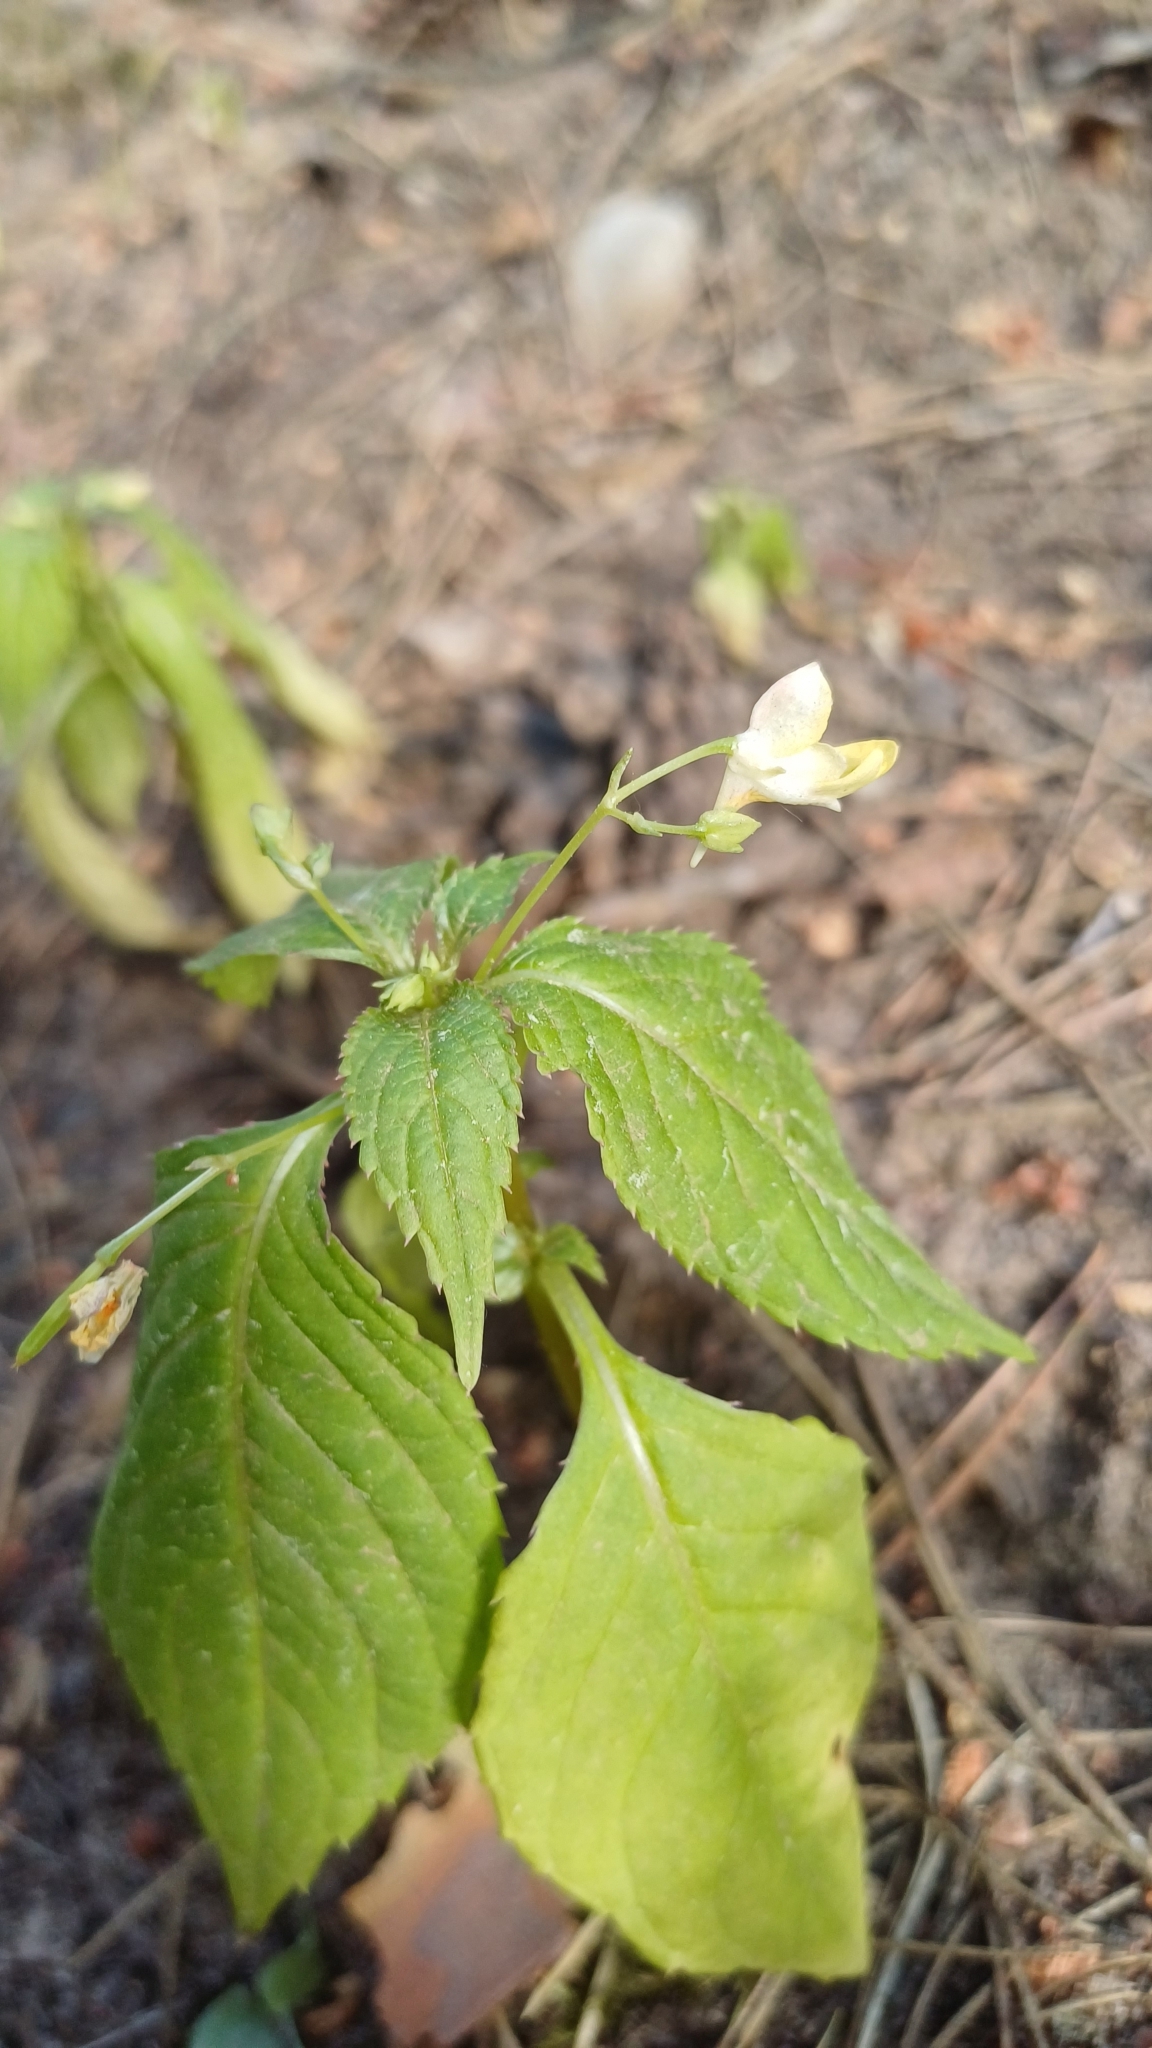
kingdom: Plantae
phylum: Tracheophyta
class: Magnoliopsida
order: Ericales
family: Balsaminaceae
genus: Impatiens
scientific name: Impatiens parviflora
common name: Small balsam
